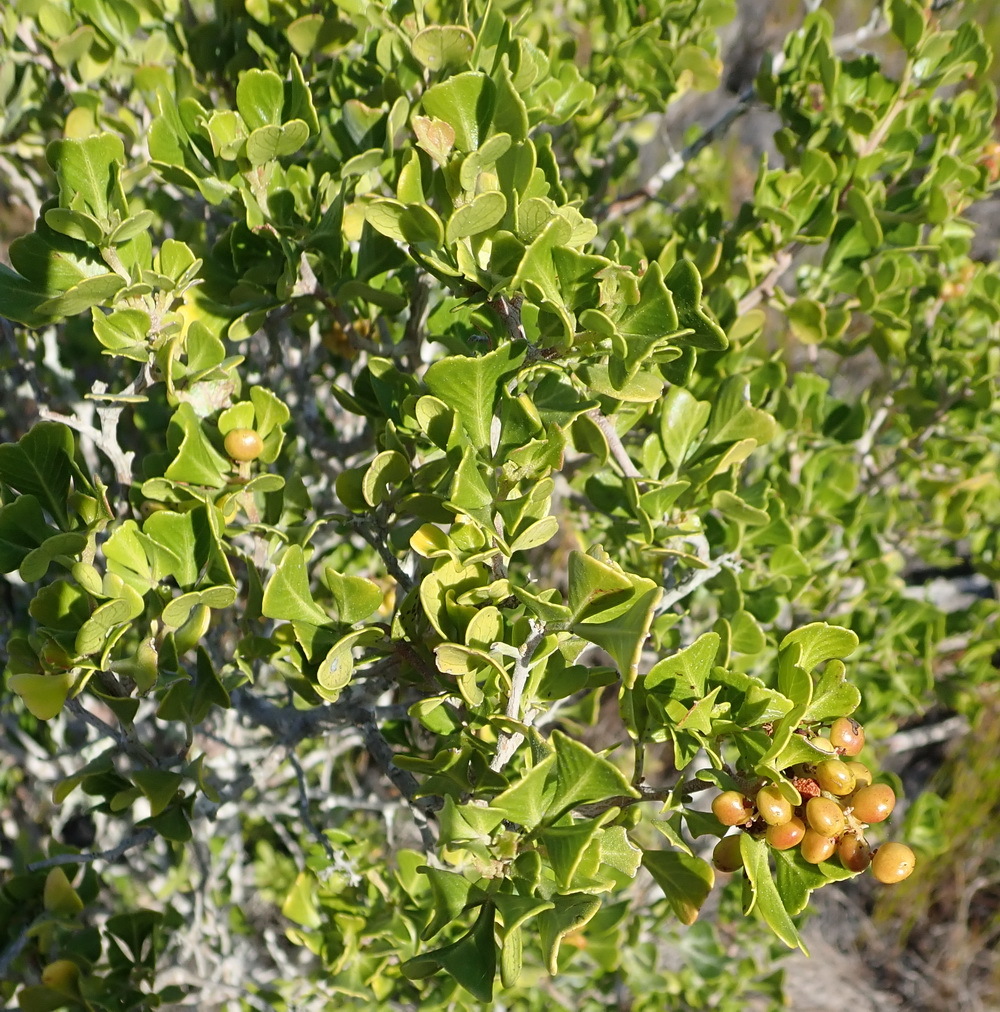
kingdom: Plantae
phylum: Tracheophyta
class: Magnoliopsida
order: Sapindales
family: Anacardiaceae
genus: Searsia
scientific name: Searsia glauca
